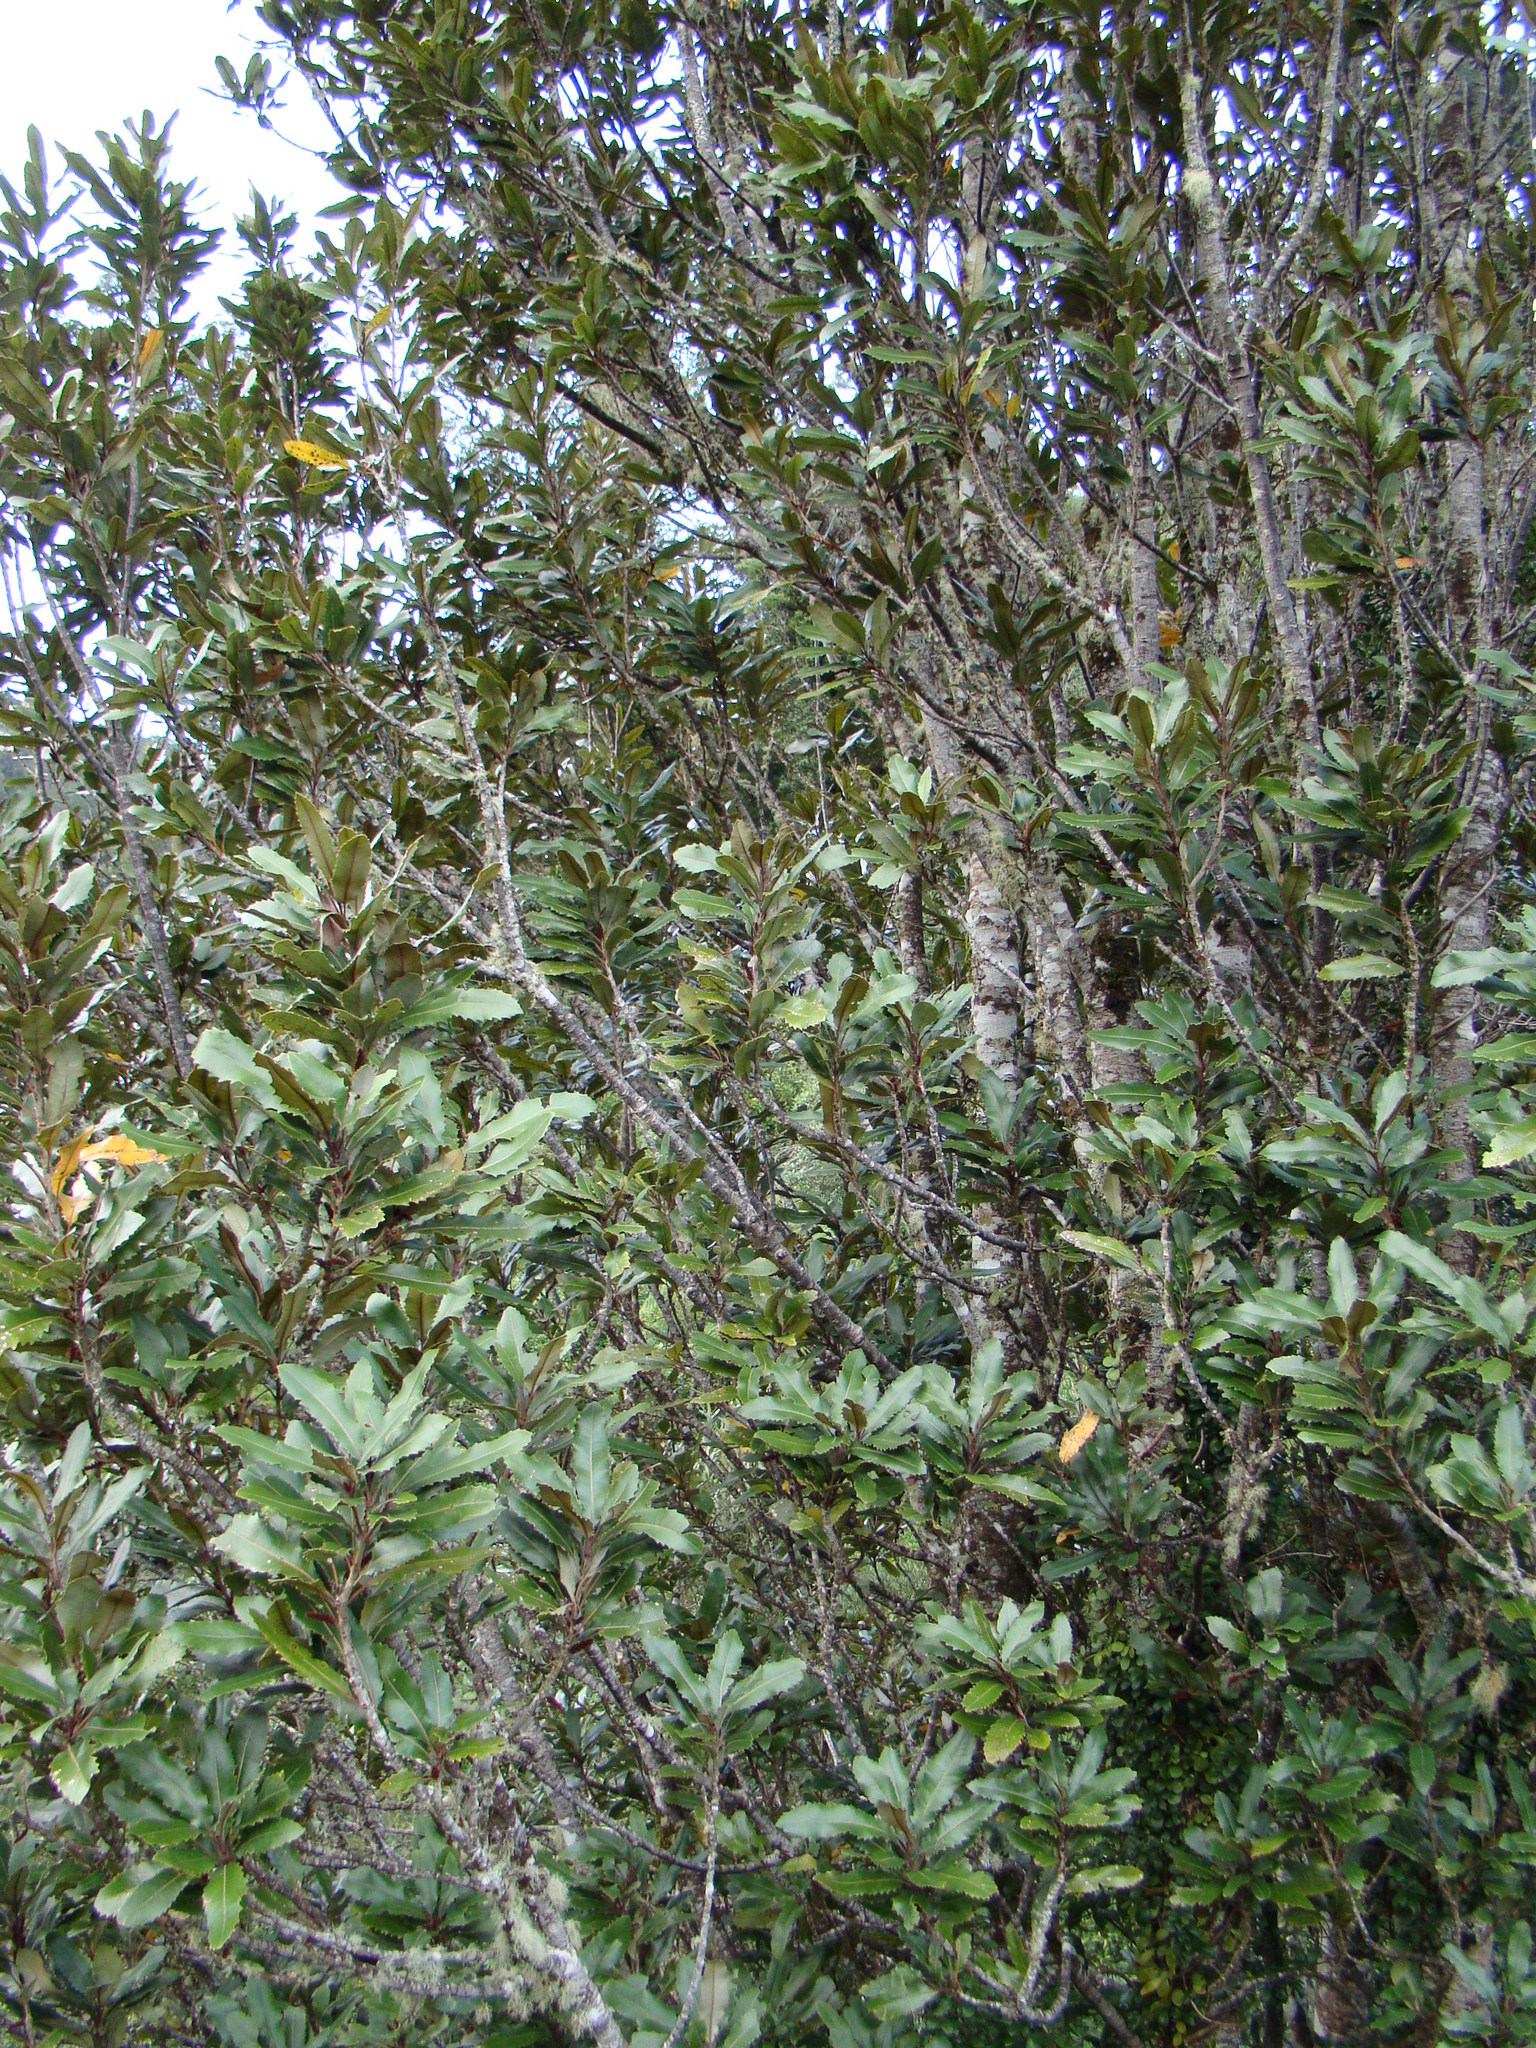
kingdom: Plantae
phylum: Tracheophyta
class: Magnoliopsida
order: Proteales
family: Proteaceae
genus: Knightia
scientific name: Knightia excelsa
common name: New zealand-honeysuckle
